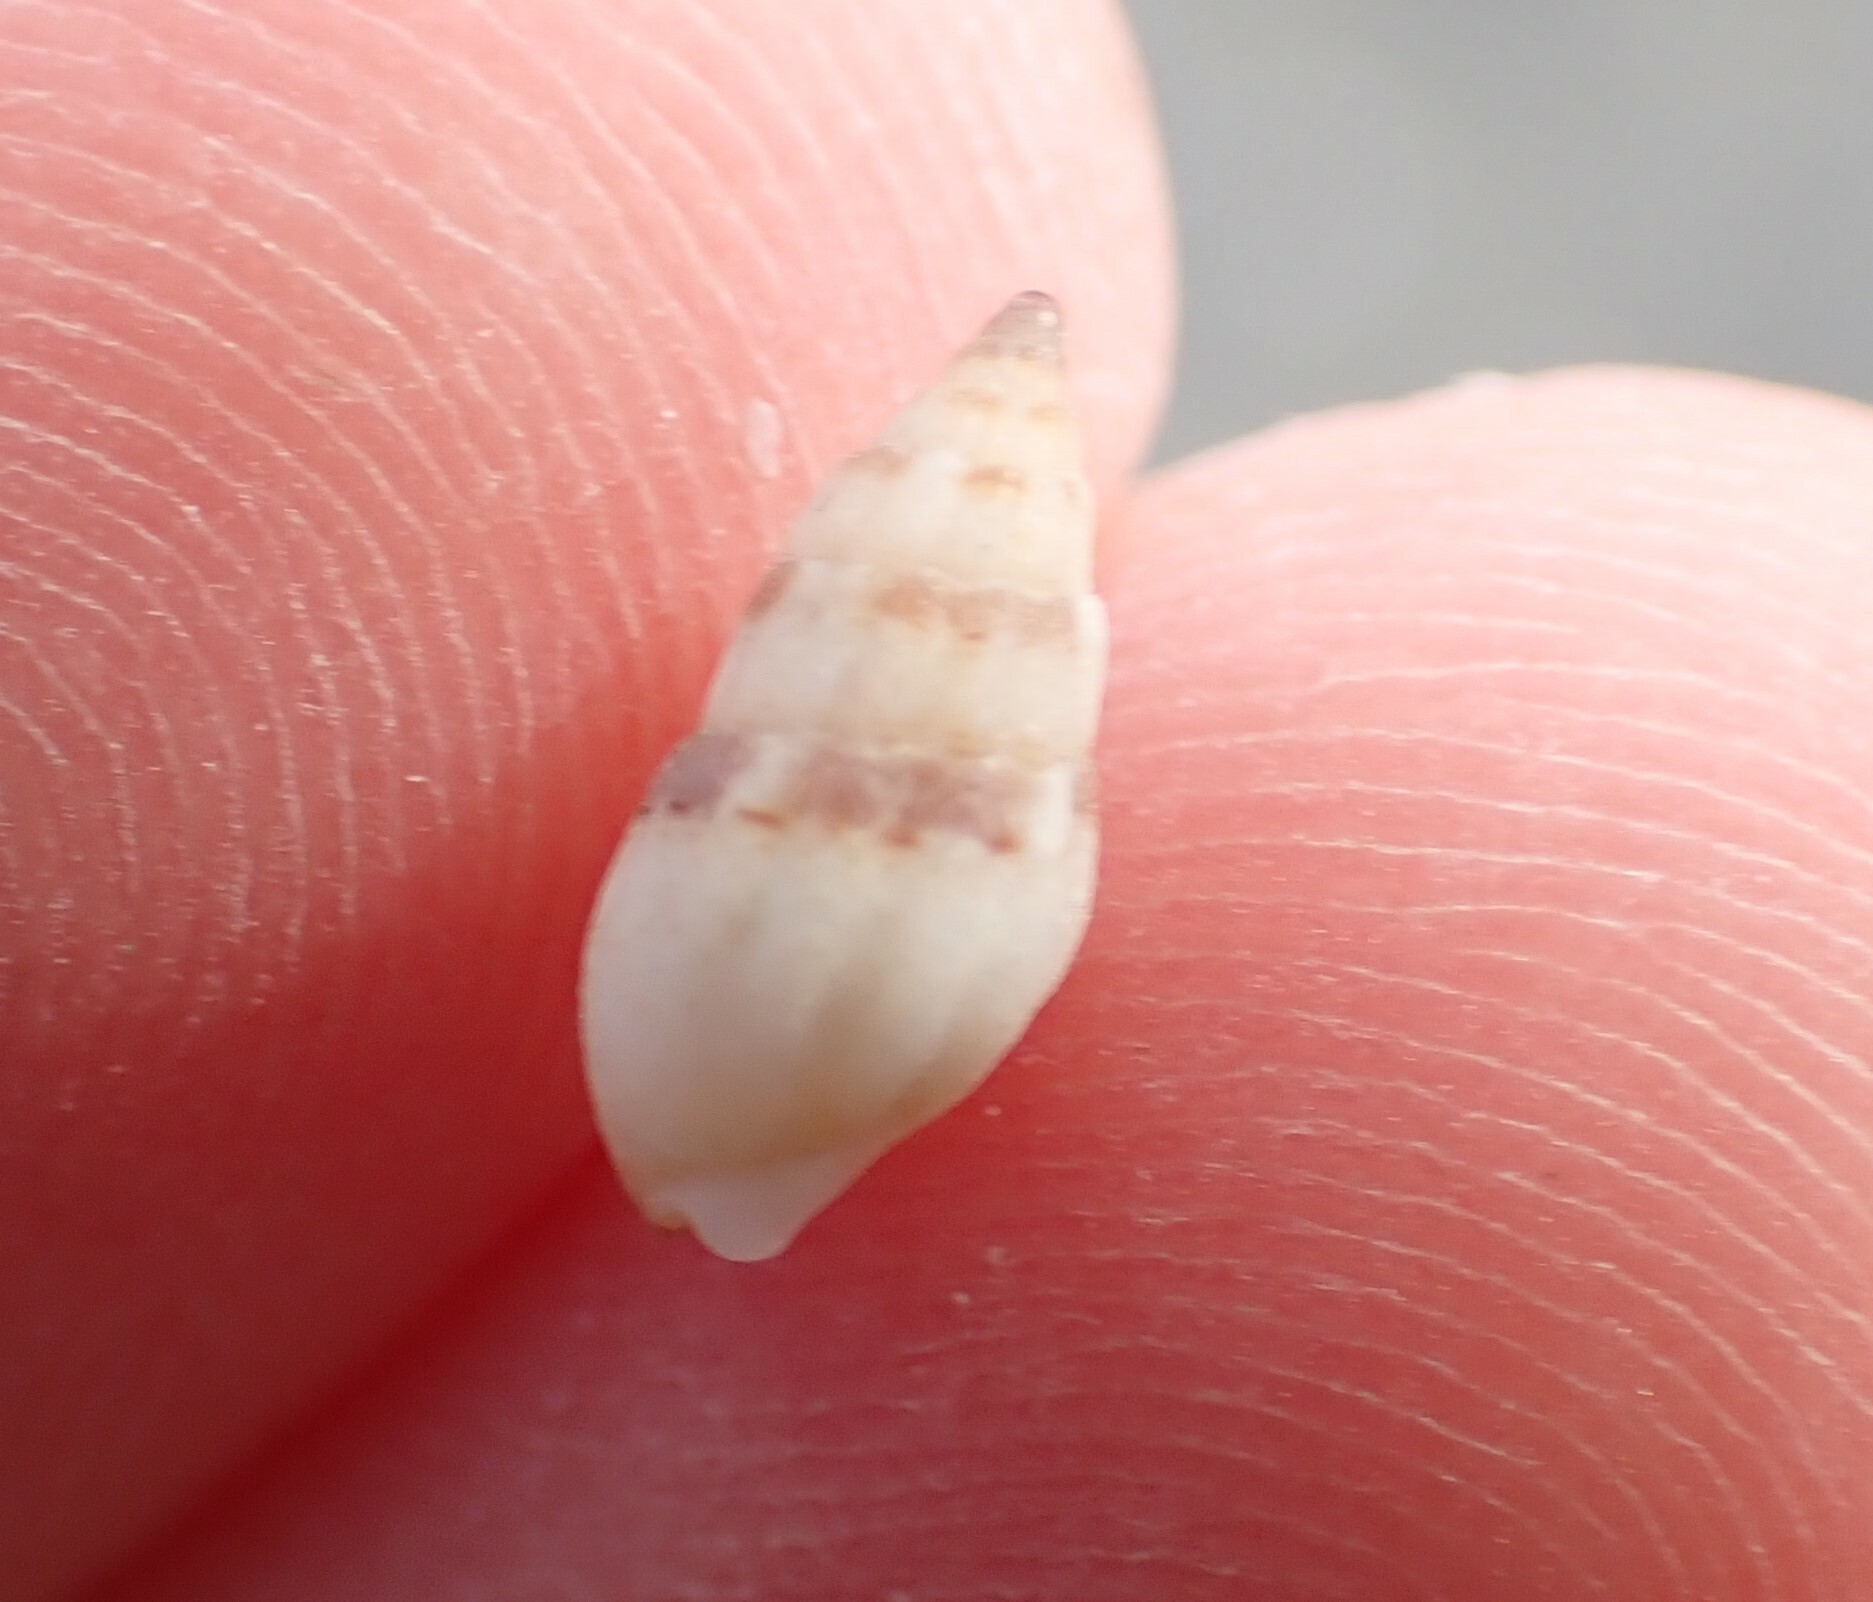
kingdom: Animalia
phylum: Mollusca
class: Gastropoda
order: Neogastropoda
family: Nassariidae
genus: Tritia
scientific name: Tritia cuvierii
